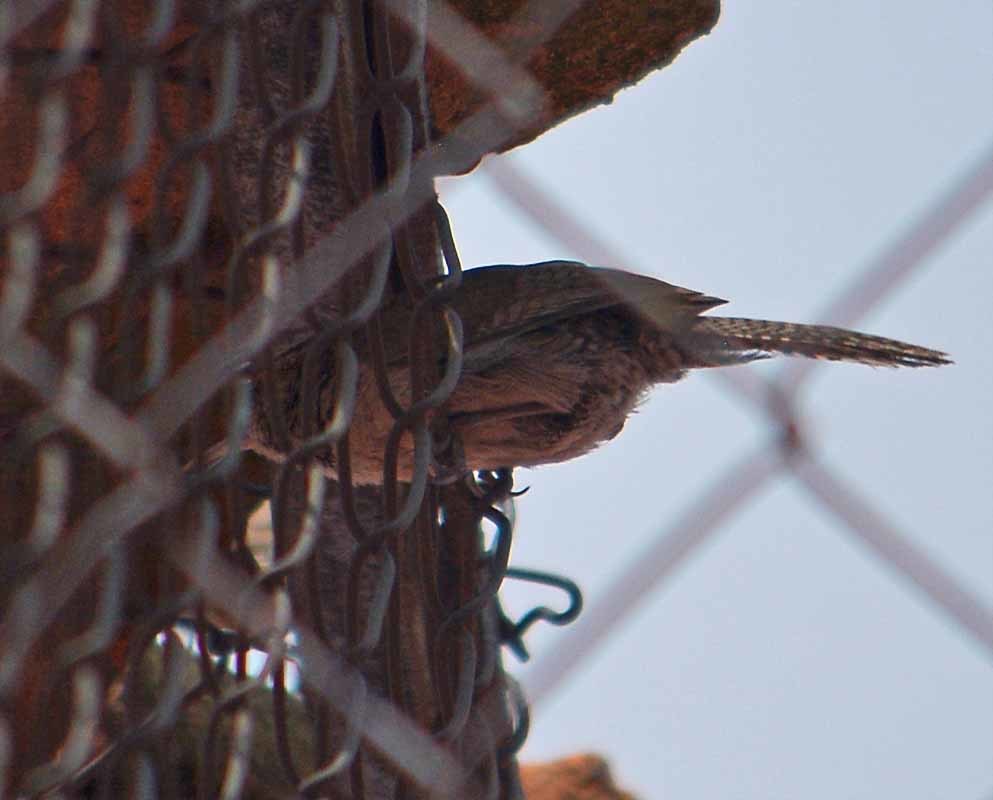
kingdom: Animalia
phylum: Chordata
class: Aves
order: Passeriformes
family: Troglodytidae
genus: Thryomanes
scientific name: Thryomanes bewickii
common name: Bewick's wren
